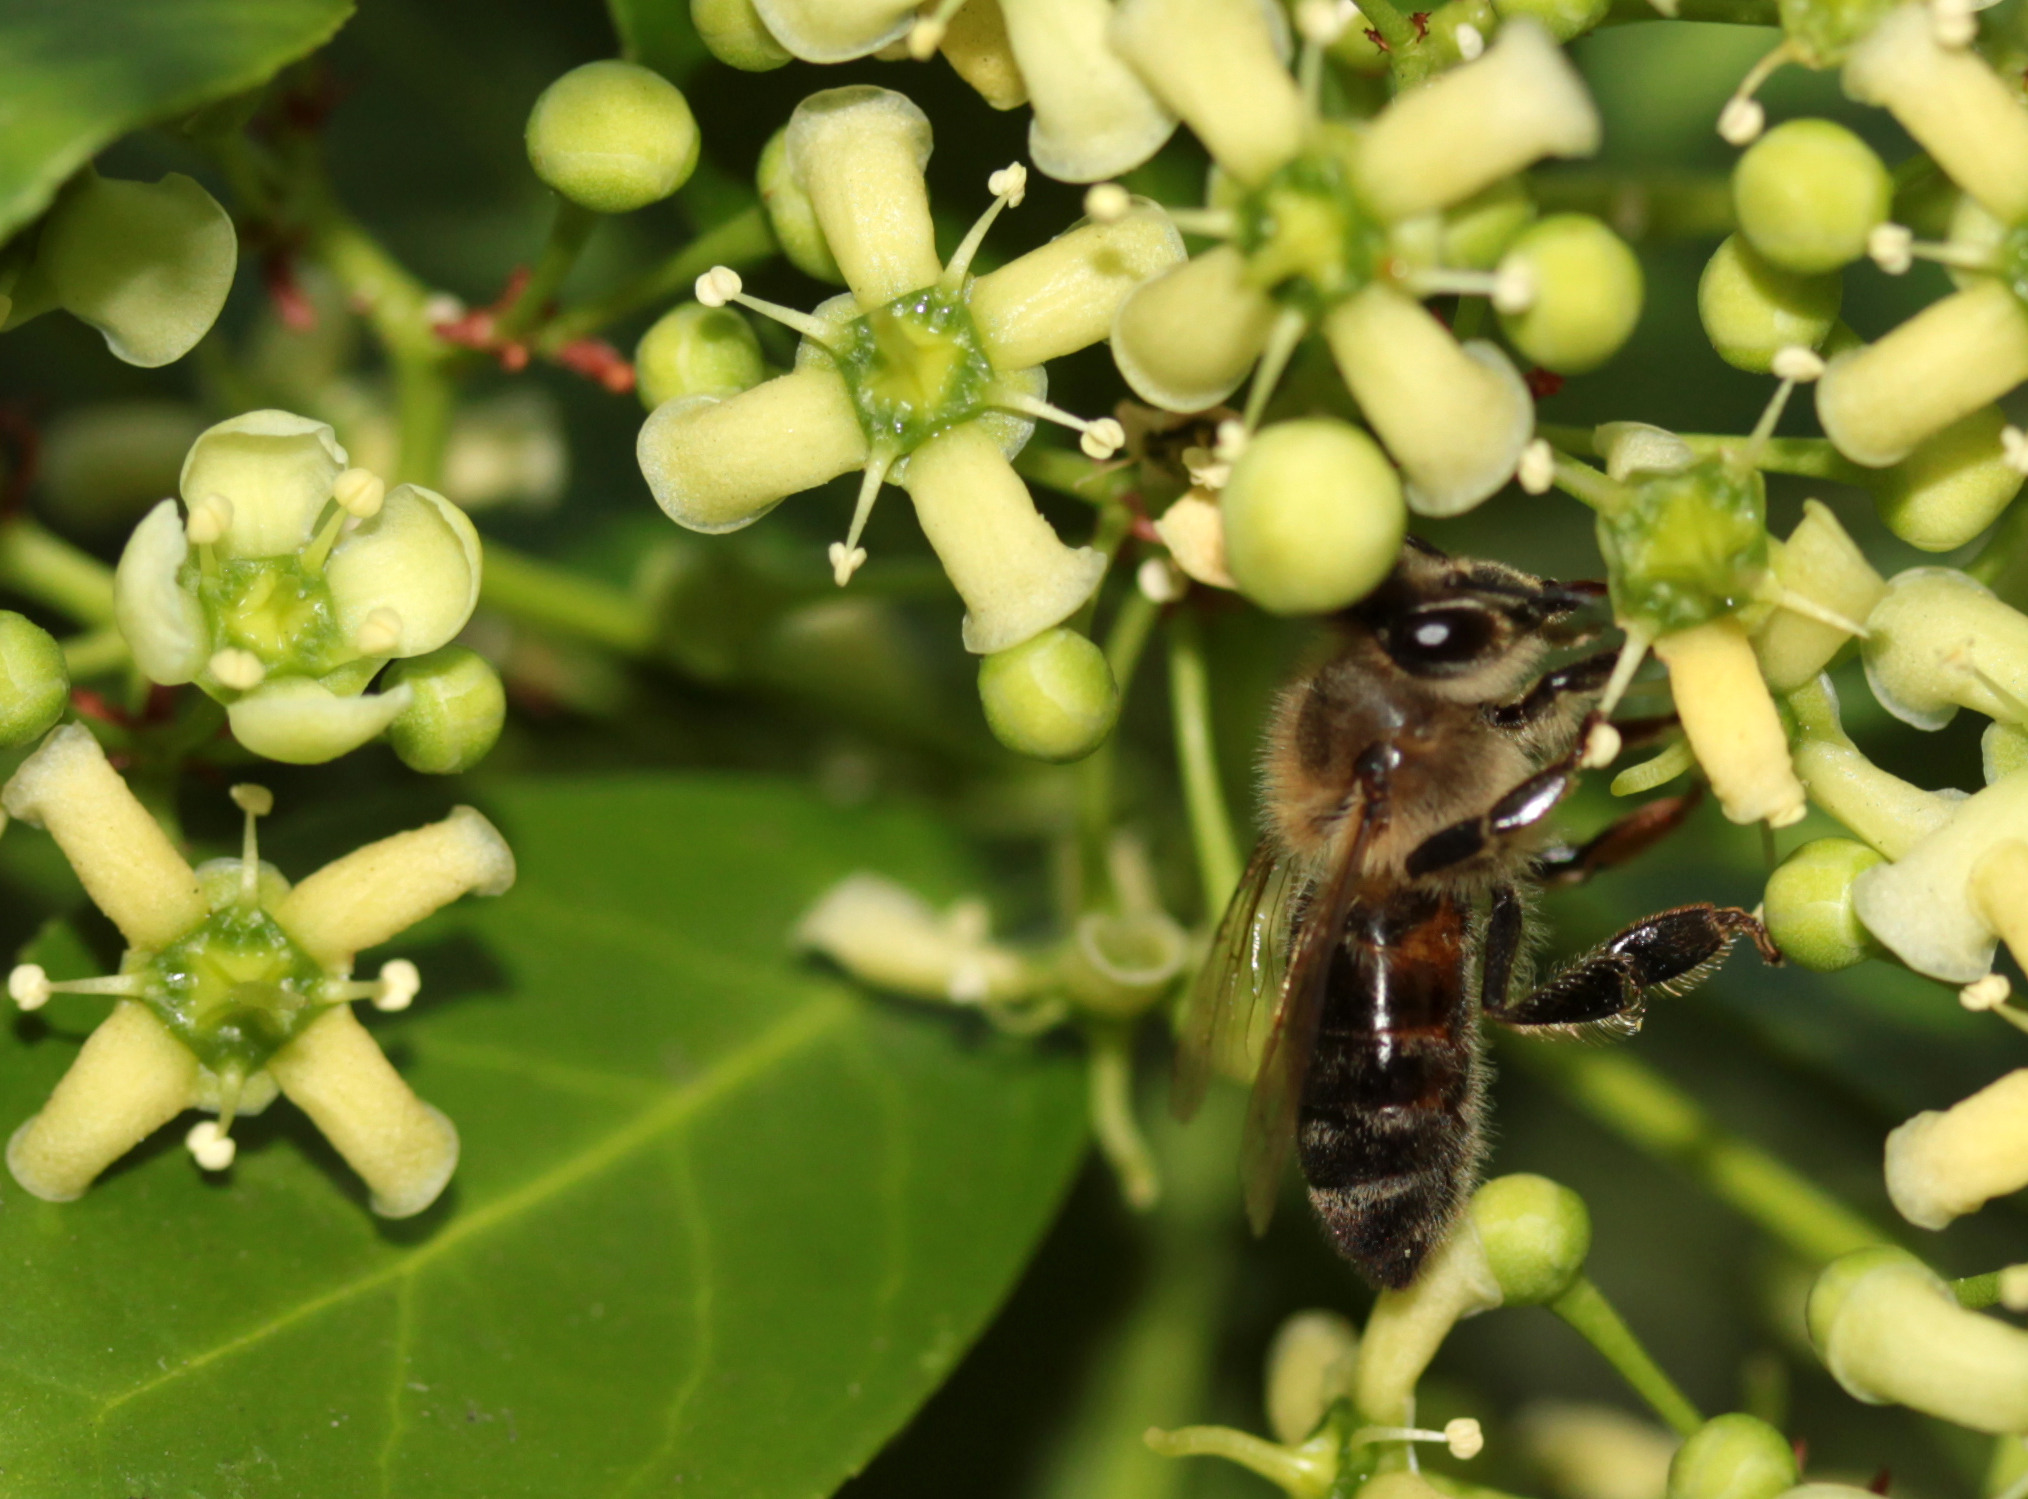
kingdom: Animalia
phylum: Arthropoda
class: Insecta
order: Hymenoptera
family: Apidae
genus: Apis
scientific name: Apis mellifera
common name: Honey bee
